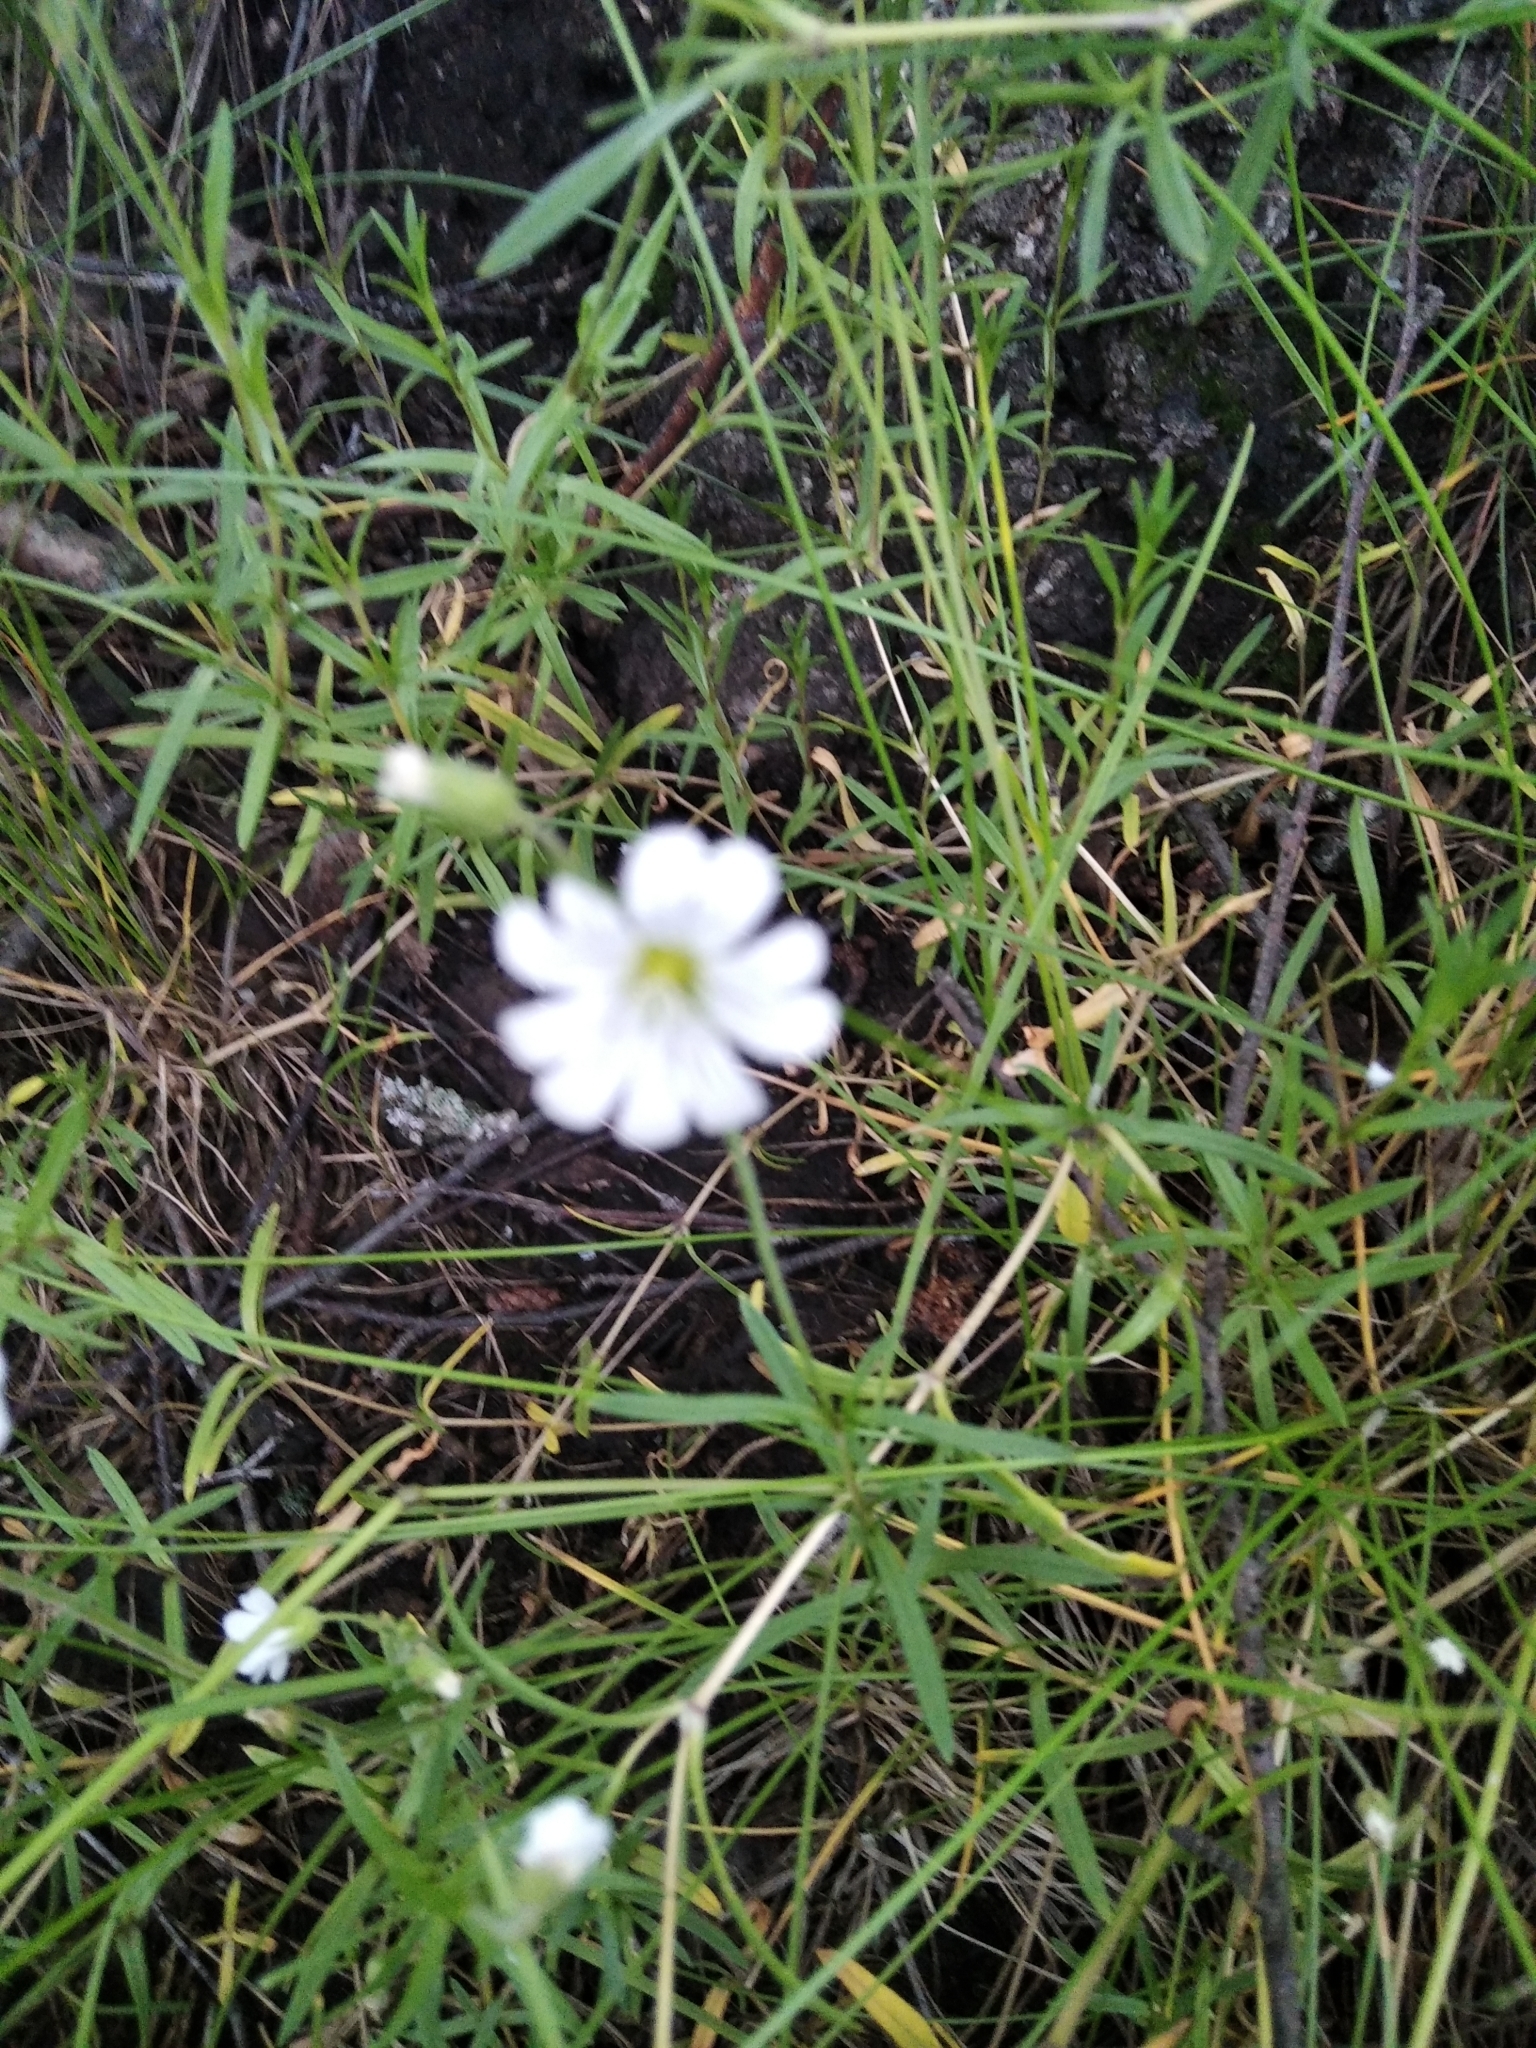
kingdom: Plantae
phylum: Tracheophyta
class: Magnoliopsida
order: Caryophyllales
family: Caryophyllaceae
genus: Cerastium
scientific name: Cerastium arvense
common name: Field mouse-ear
